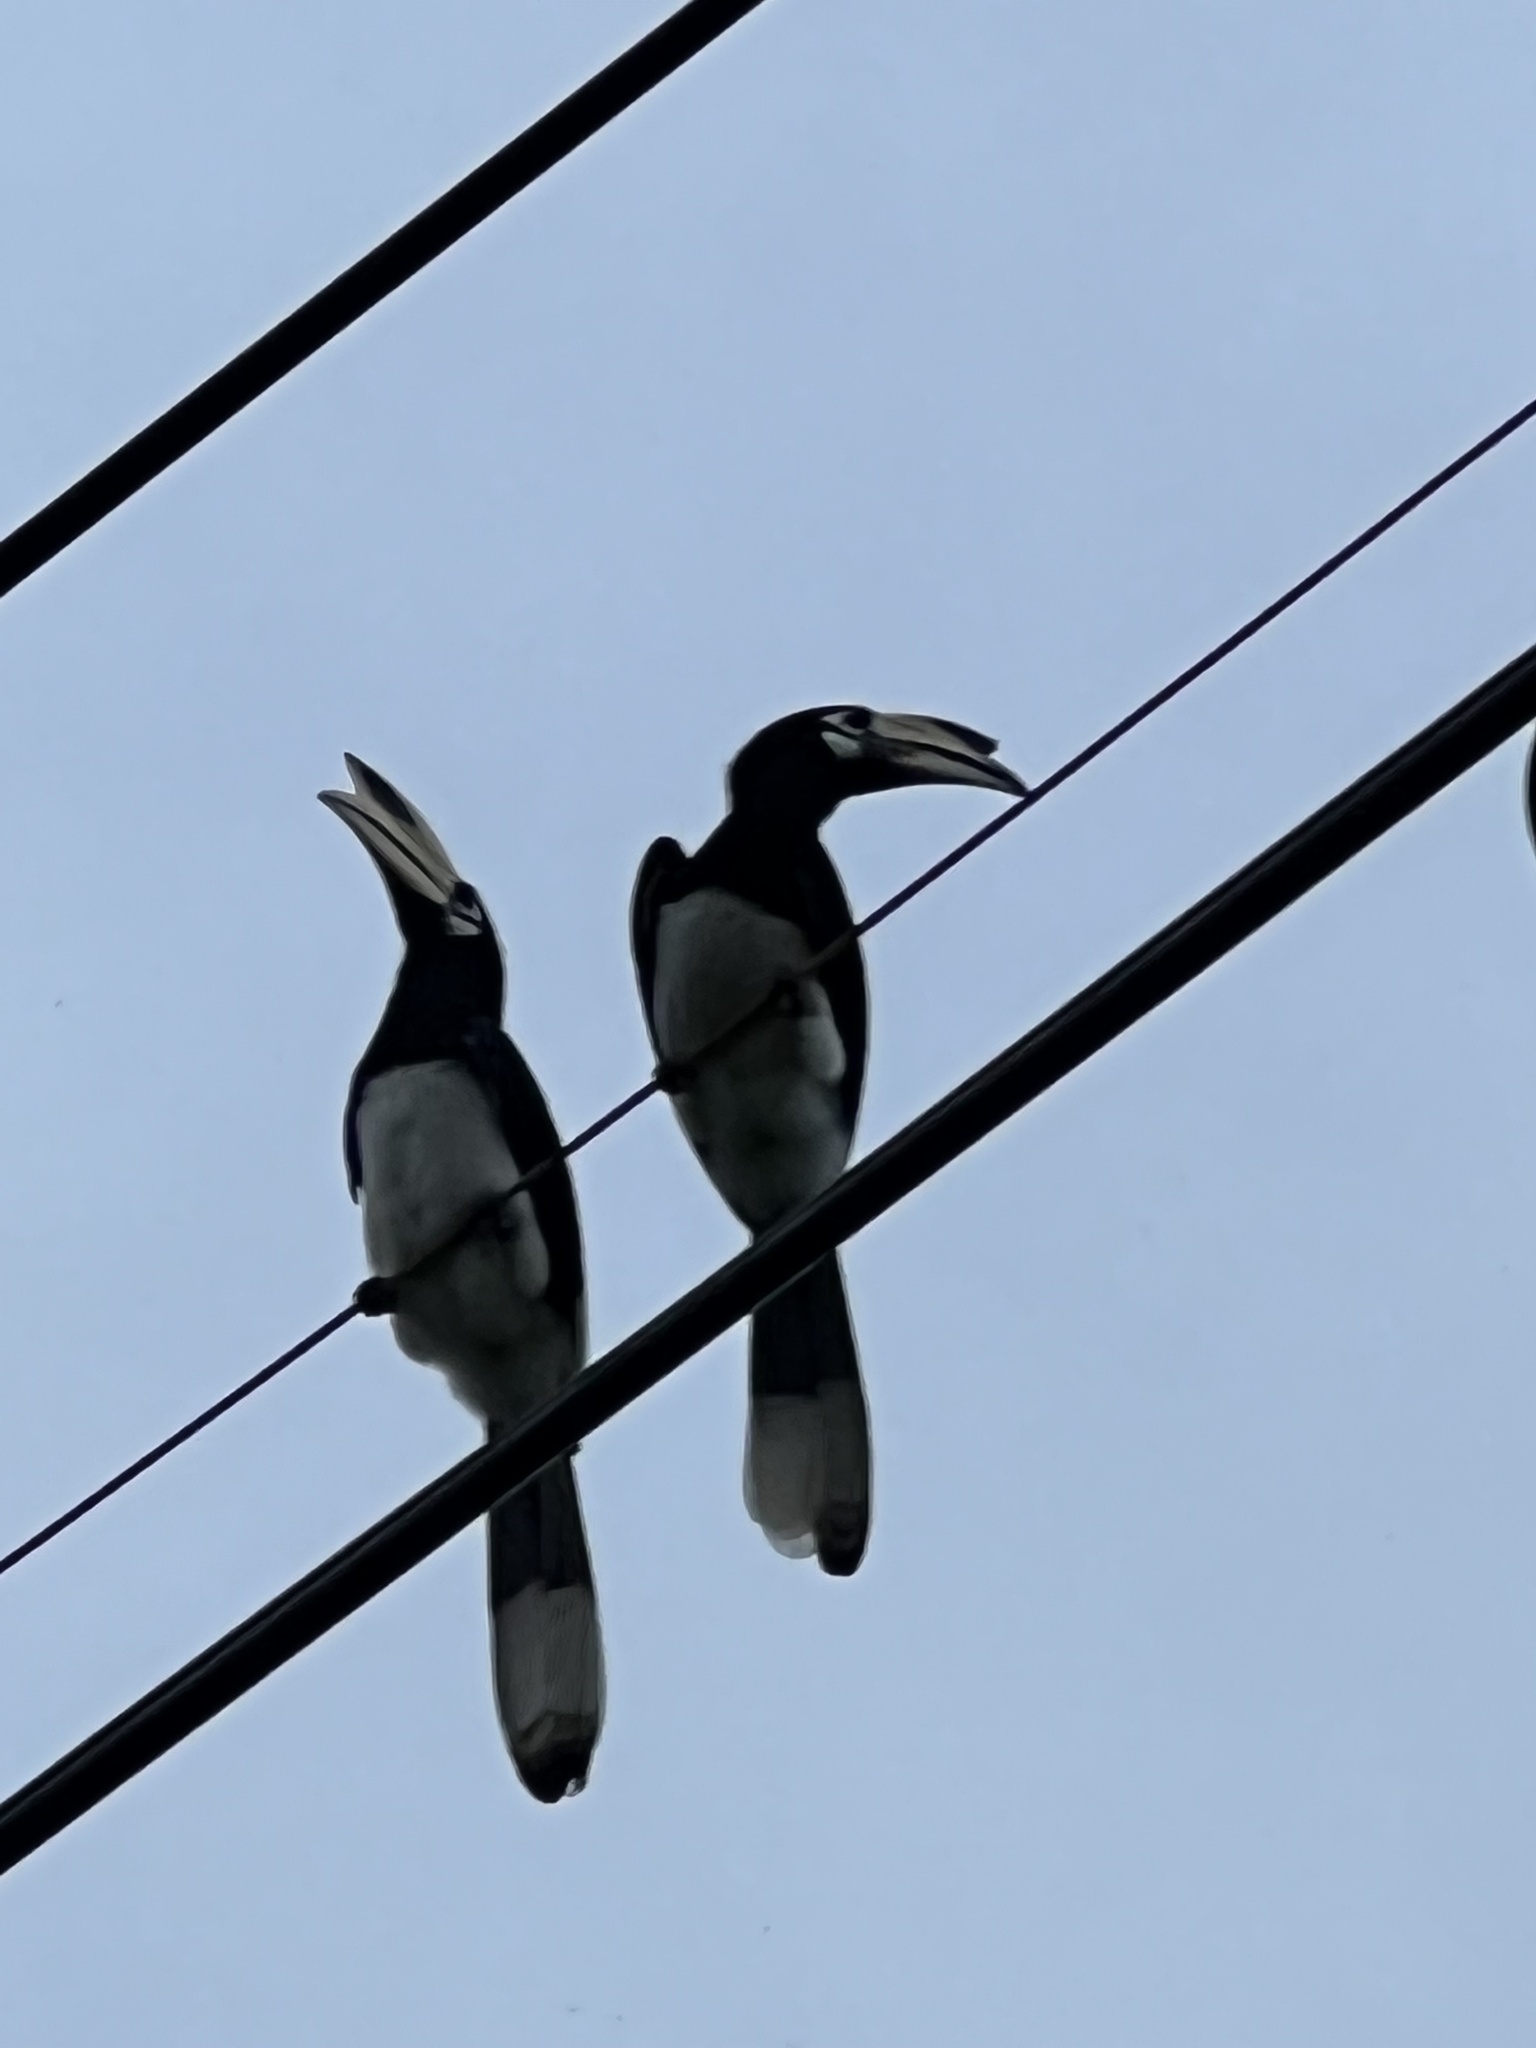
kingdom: Animalia
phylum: Chordata
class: Aves
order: Bucerotiformes
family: Bucerotidae
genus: Anthracoceros
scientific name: Anthracoceros albirostris
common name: Oriental pied-hornbill
